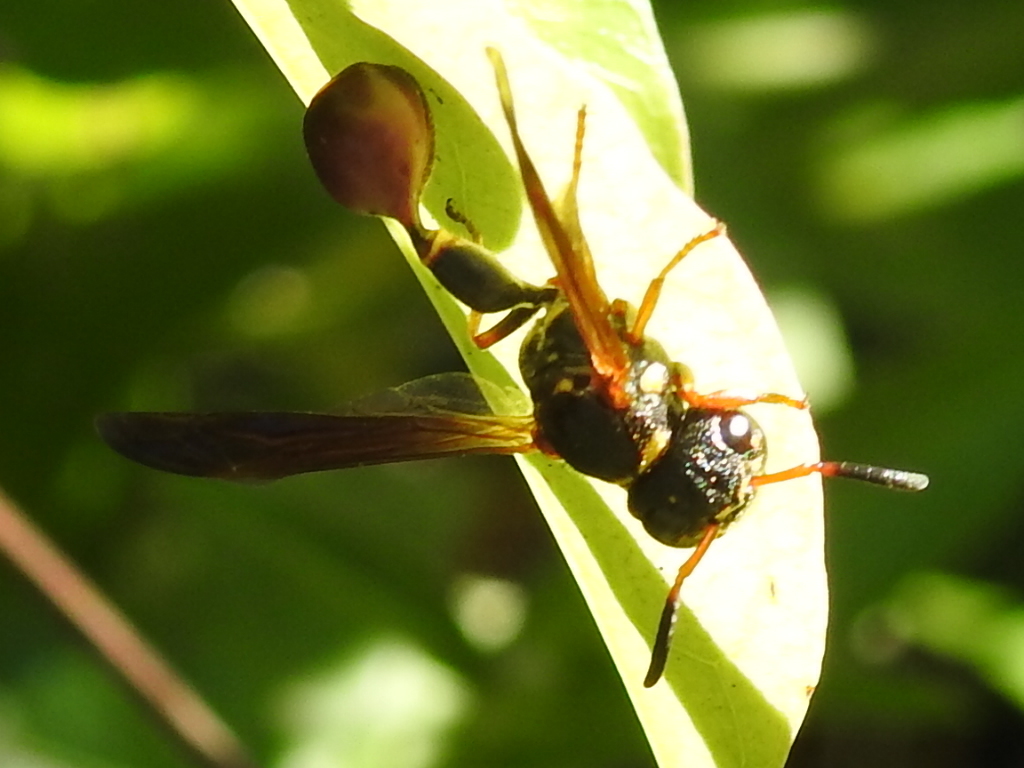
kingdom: Animalia
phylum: Arthropoda
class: Insecta
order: Hymenoptera
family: Eumenidae
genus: Zethus
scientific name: Zethus slossonae
